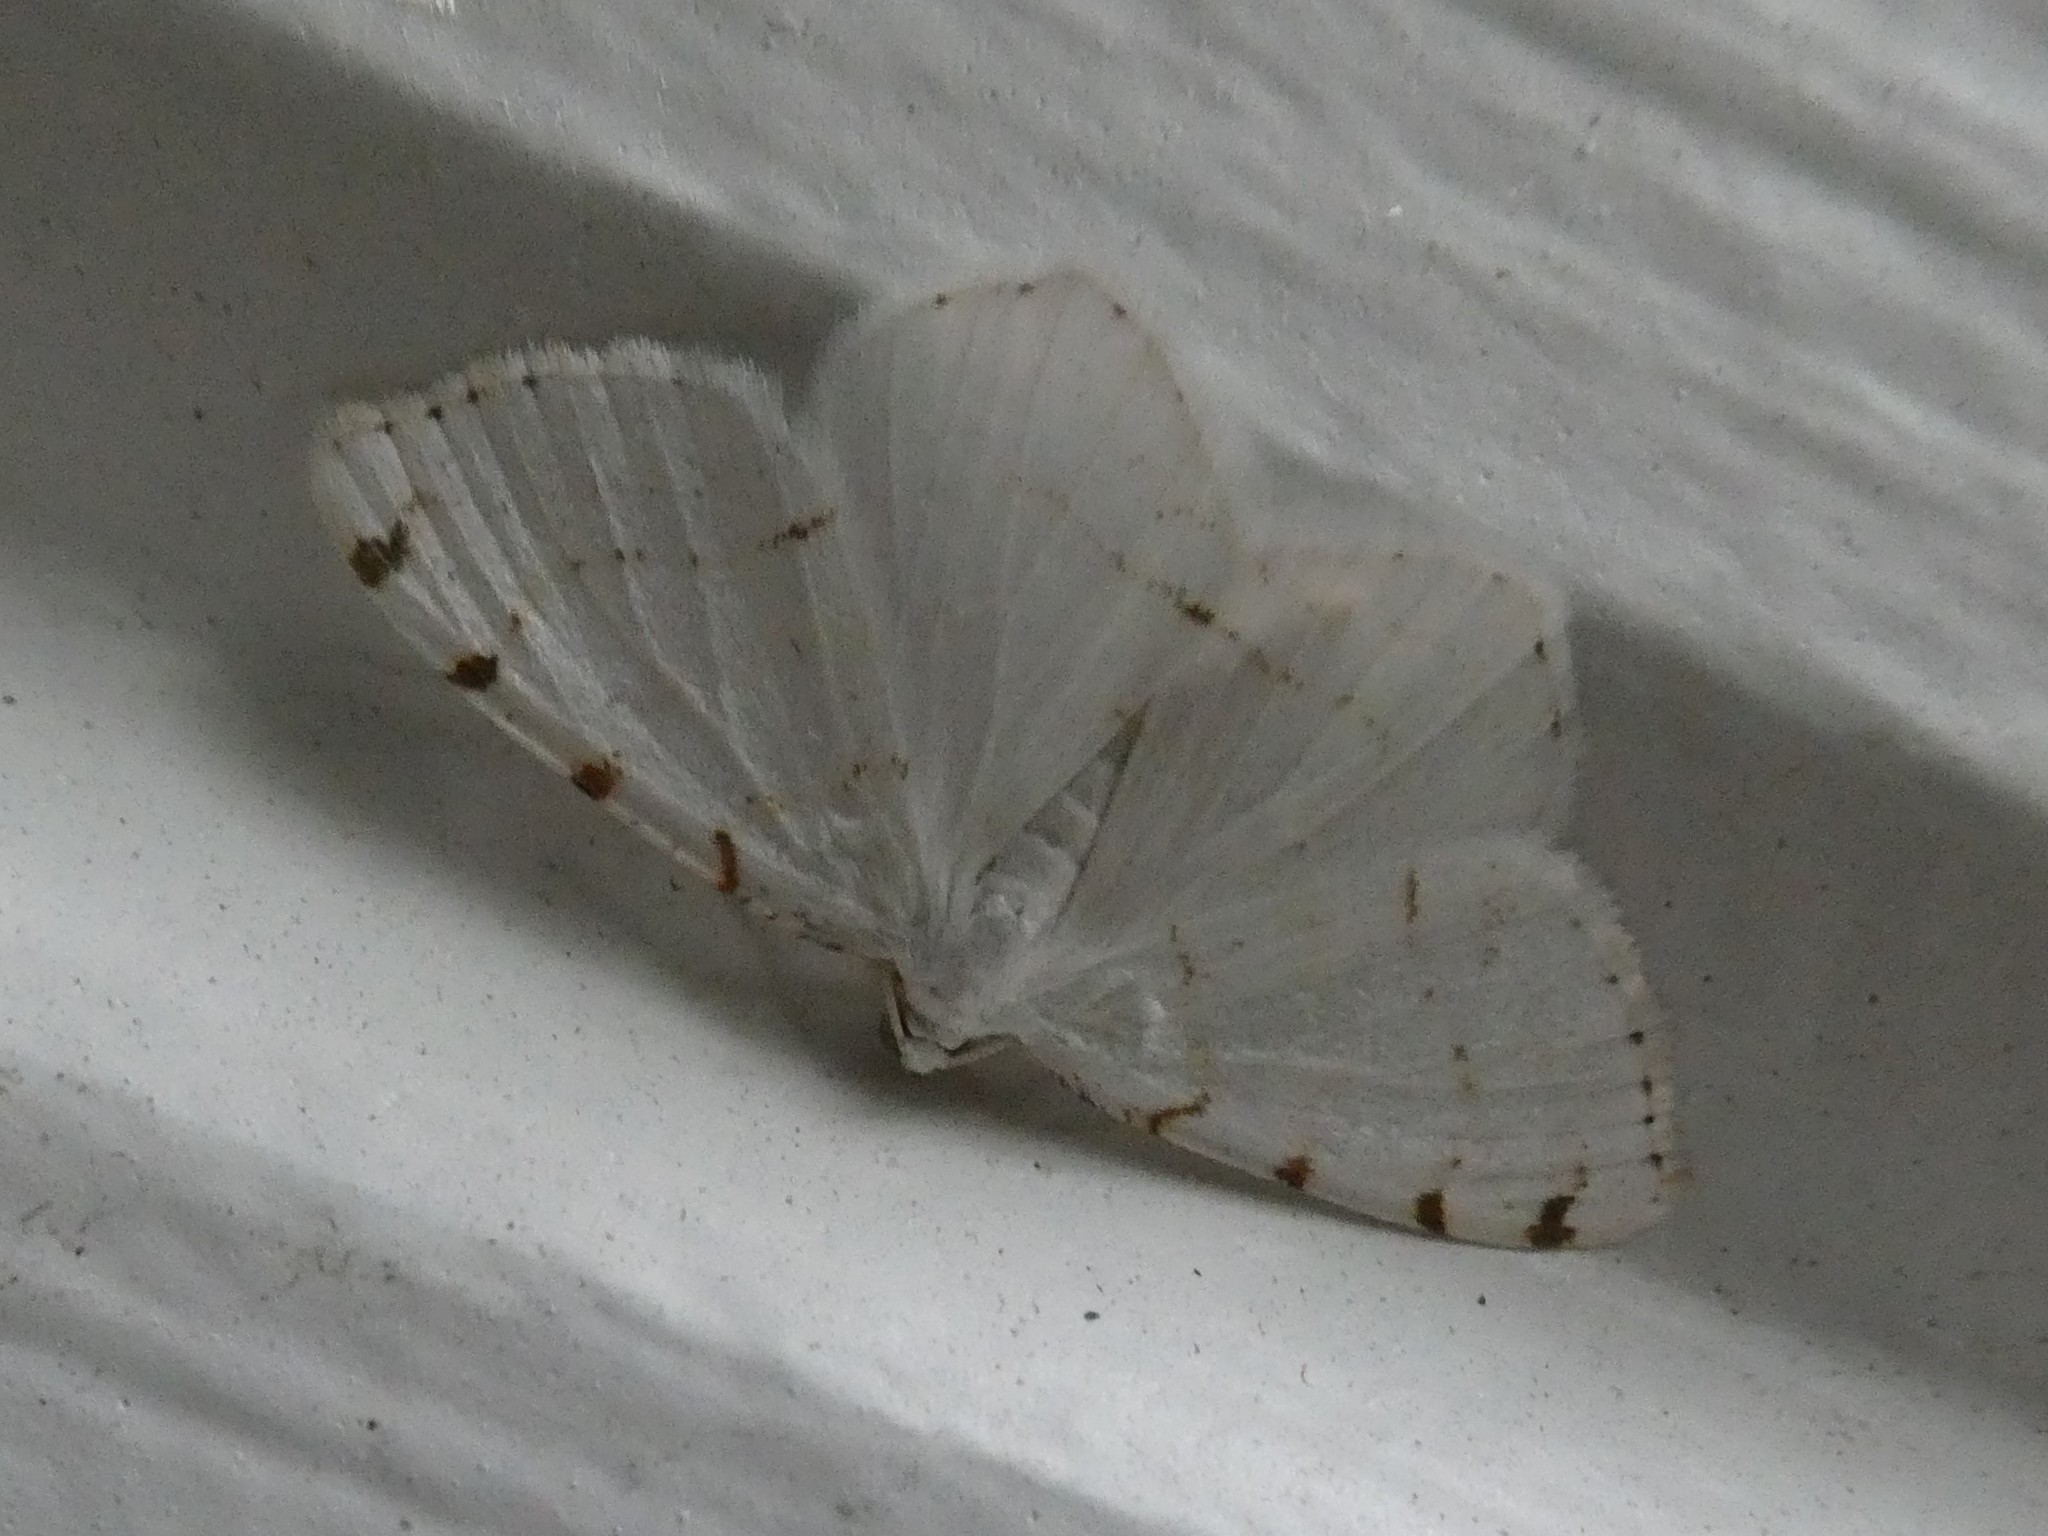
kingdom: Animalia
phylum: Arthropoda
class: Insecta
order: Lepidoptera
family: Geometridae
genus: Macaria
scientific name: Macaria pustularia
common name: Lesser maple spanworm moth
